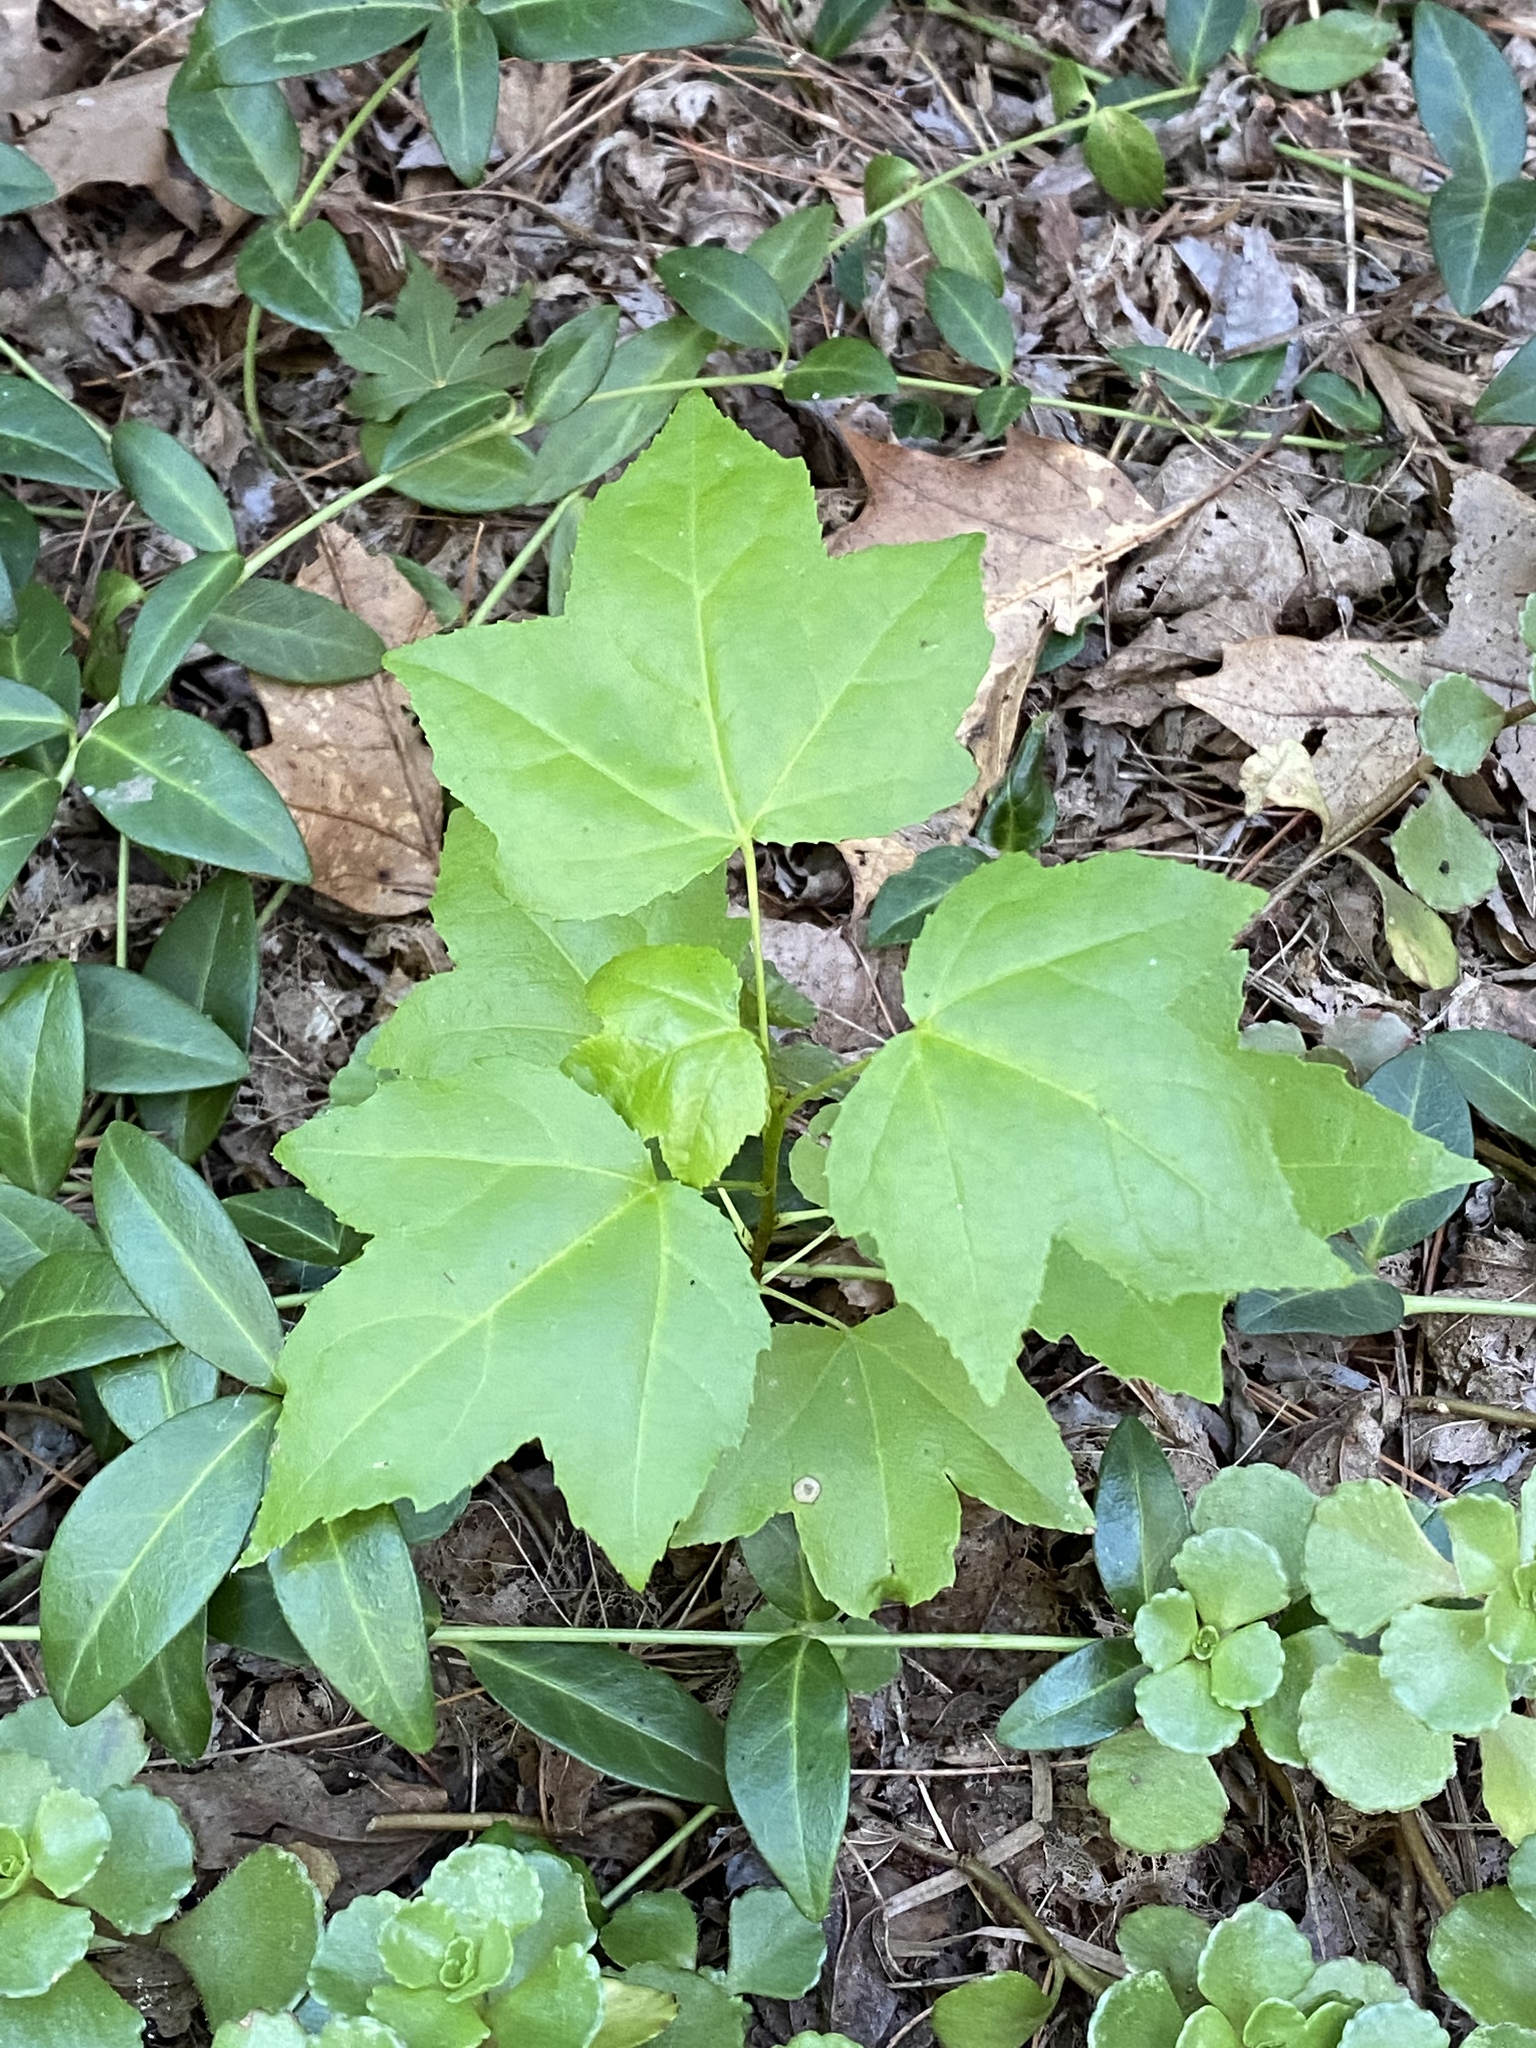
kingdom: Plantae
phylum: Tracheophyta
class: Magnoliopsida
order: Saxifragales
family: Altingiaceae
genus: Liquidambar
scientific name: Liquidambar styraciflua
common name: Sweet gum
